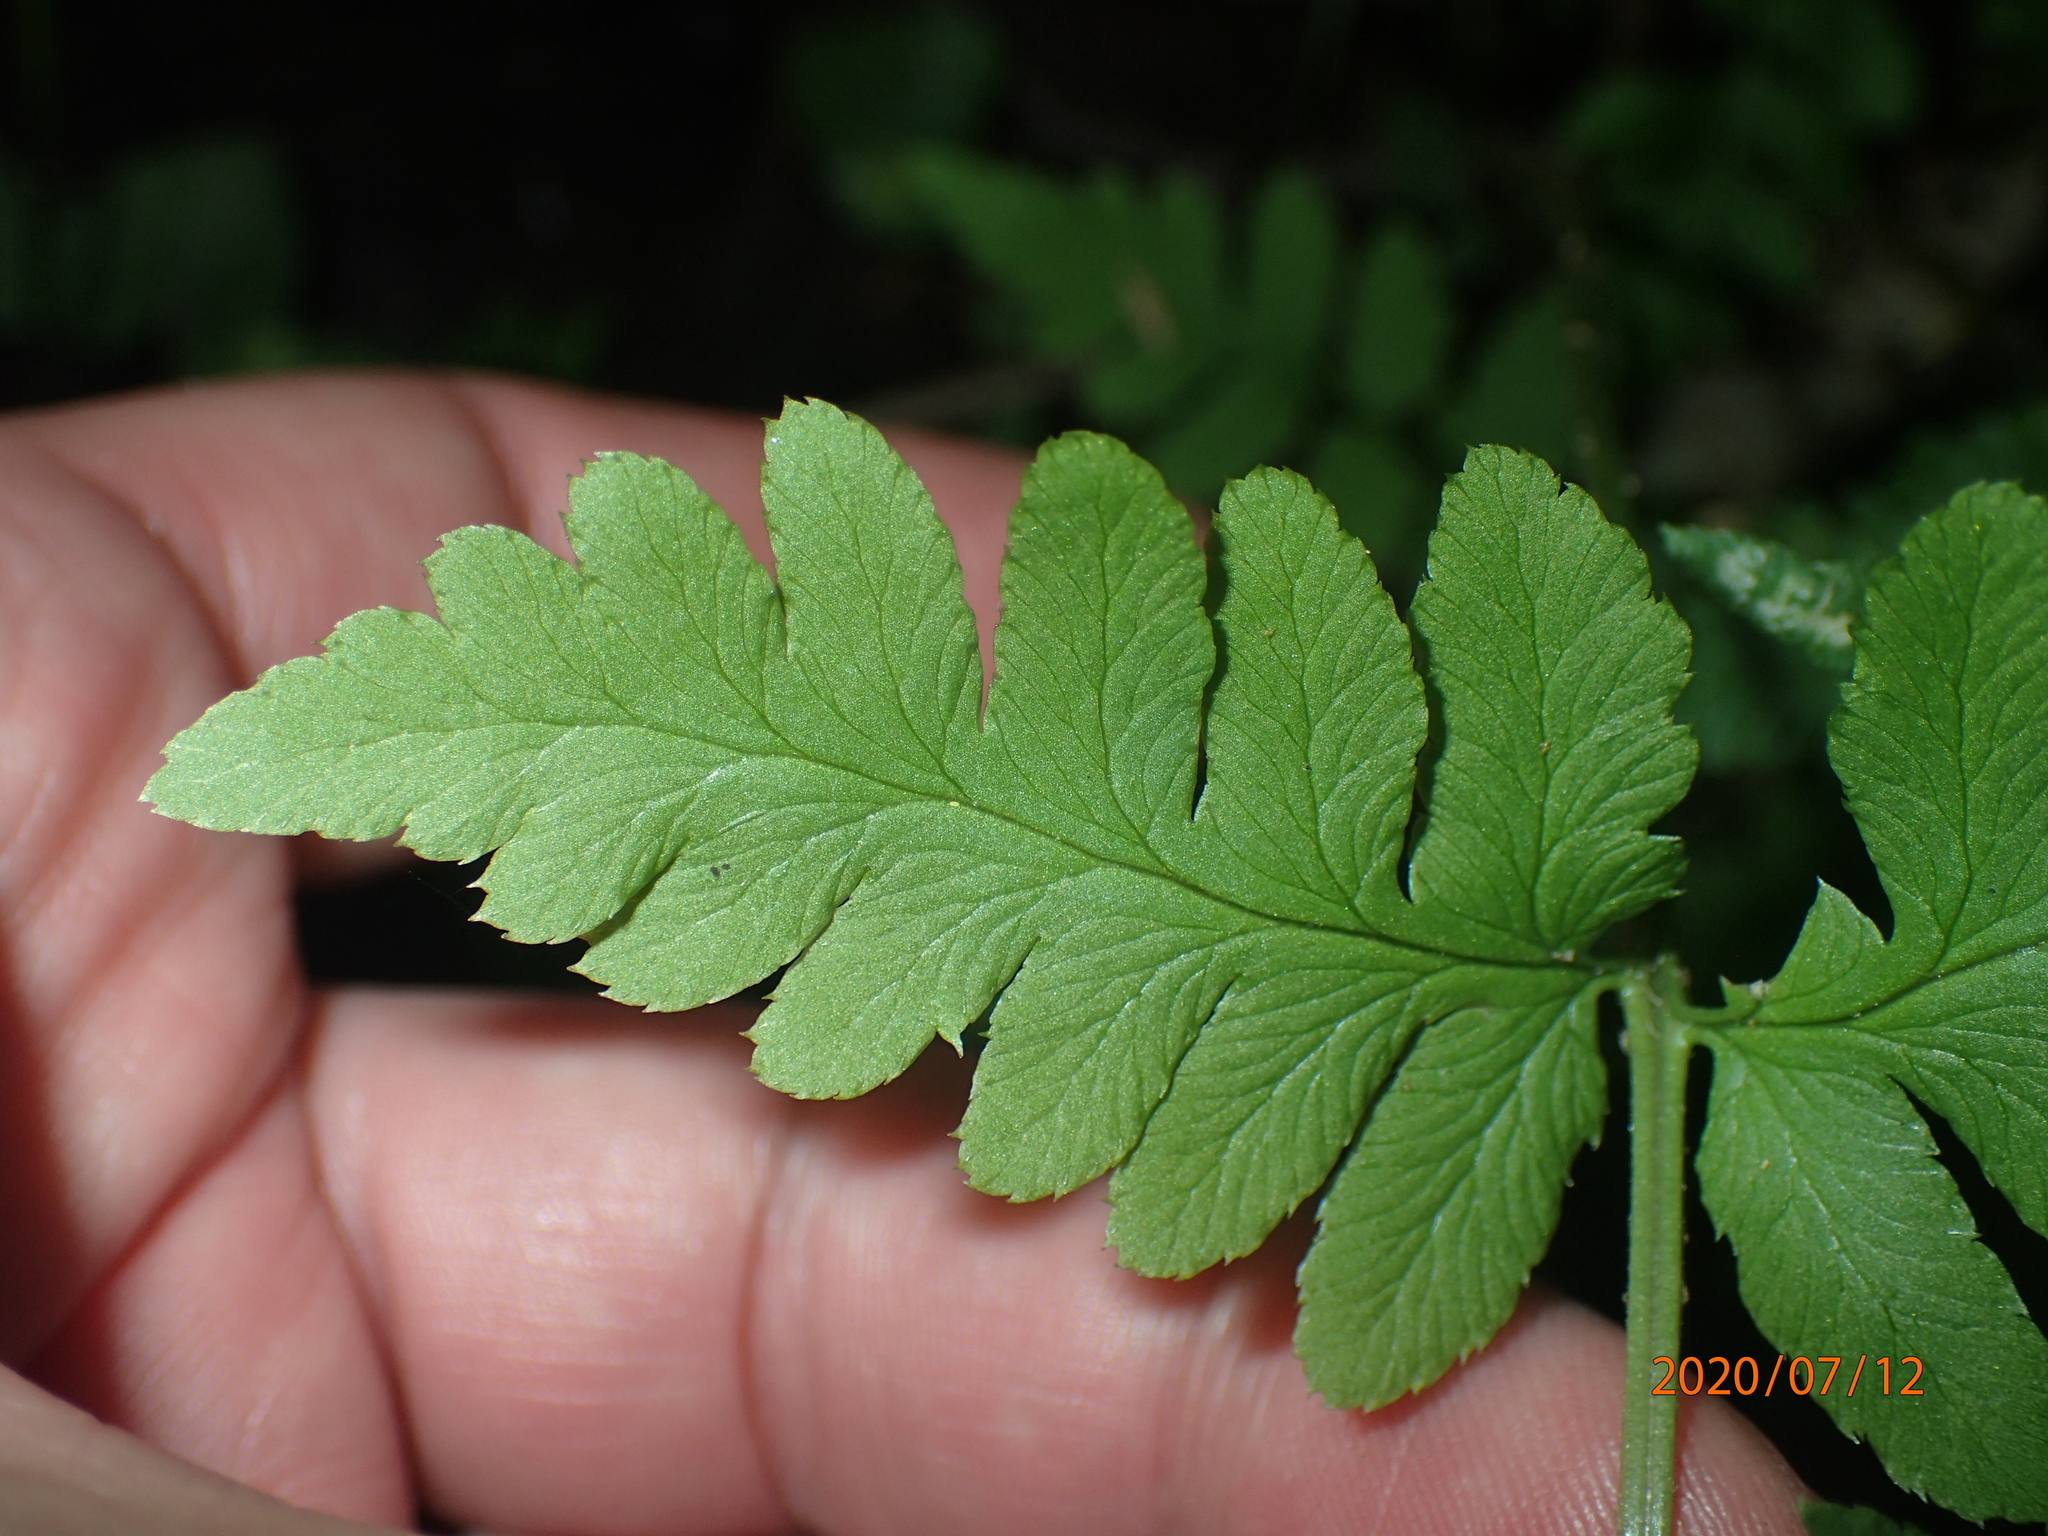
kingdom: Plantae
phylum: Tracheophyta
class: Polypodiopsida
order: Polypodiales
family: Dryopteridaceae
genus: Dryopteris
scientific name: Dryopteris cristata
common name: Crested wood fern
